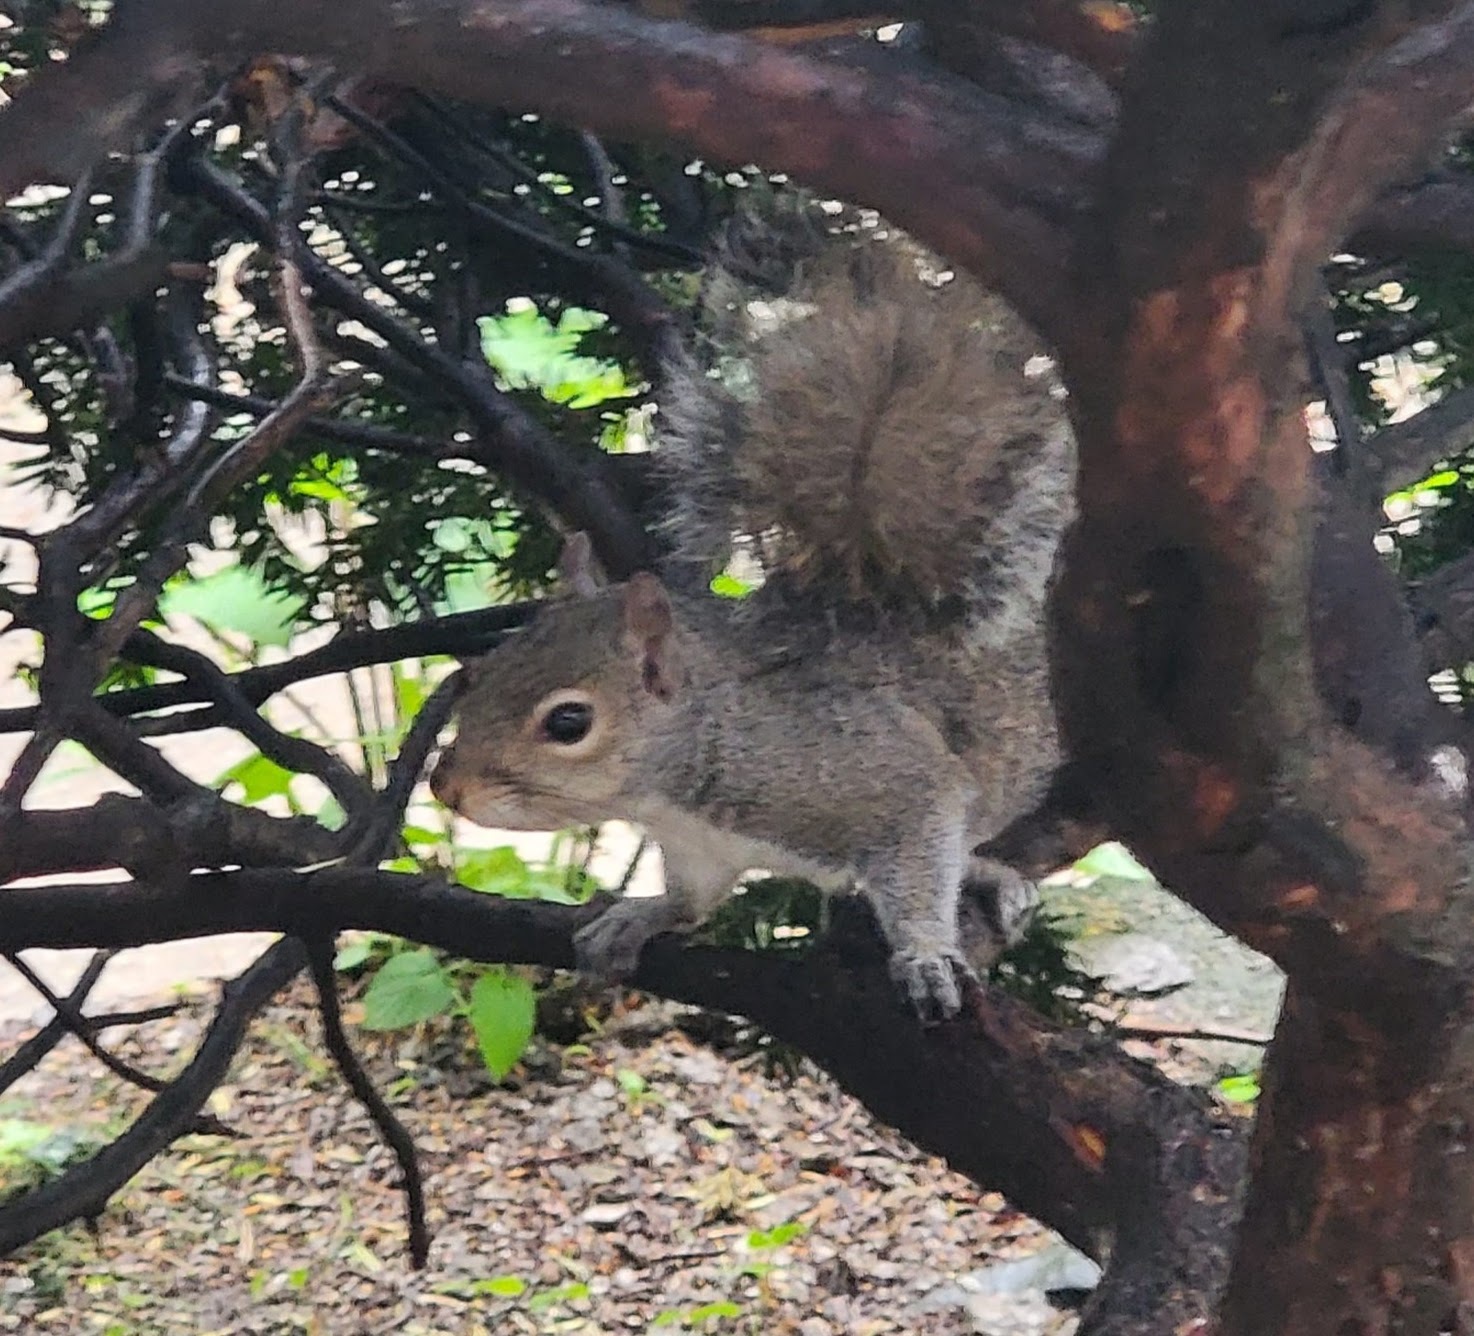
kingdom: Animalia
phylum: Chordata
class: Mammalia
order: Rodentia
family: Sciuridae
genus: Sciurus
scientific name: Sciurus carolinensis
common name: Eastern gray squirrel
